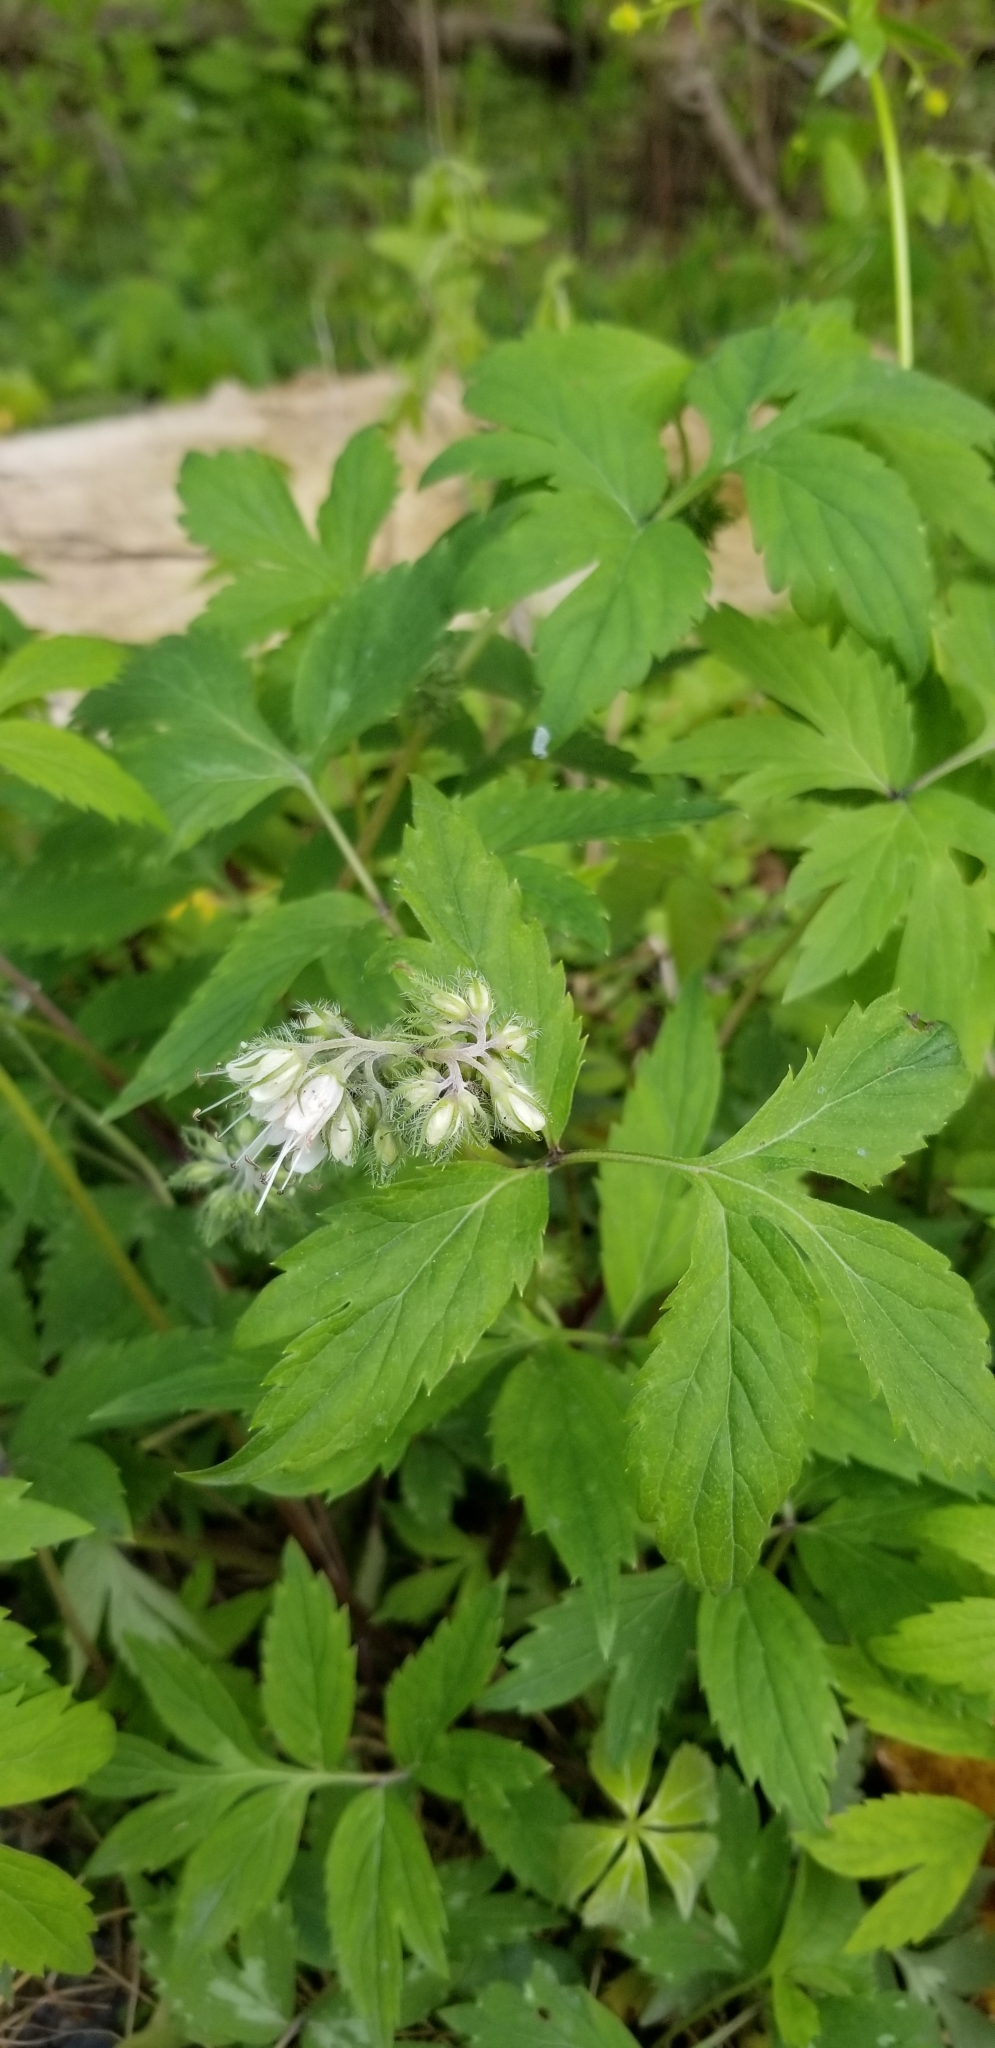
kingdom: Plantae
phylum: Tracheophyta
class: Magnoliopsida
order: Boraginales
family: Hydrophyllaceae
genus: Hydrophyllum
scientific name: Hydrophyllum virginianum
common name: Virginia waterleaf
